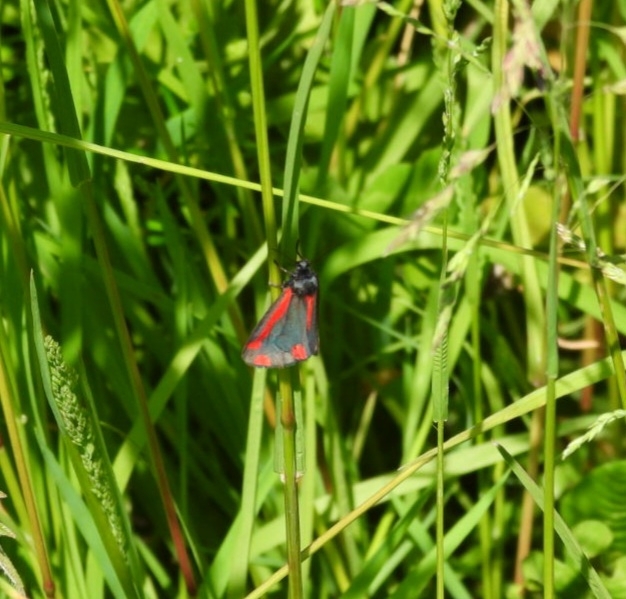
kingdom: Animalia
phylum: Arthropoda
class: Insecta
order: Lepidoptera
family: Erebidae
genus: Tyria
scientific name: Tyria jacobaeae
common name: Cinnabar
